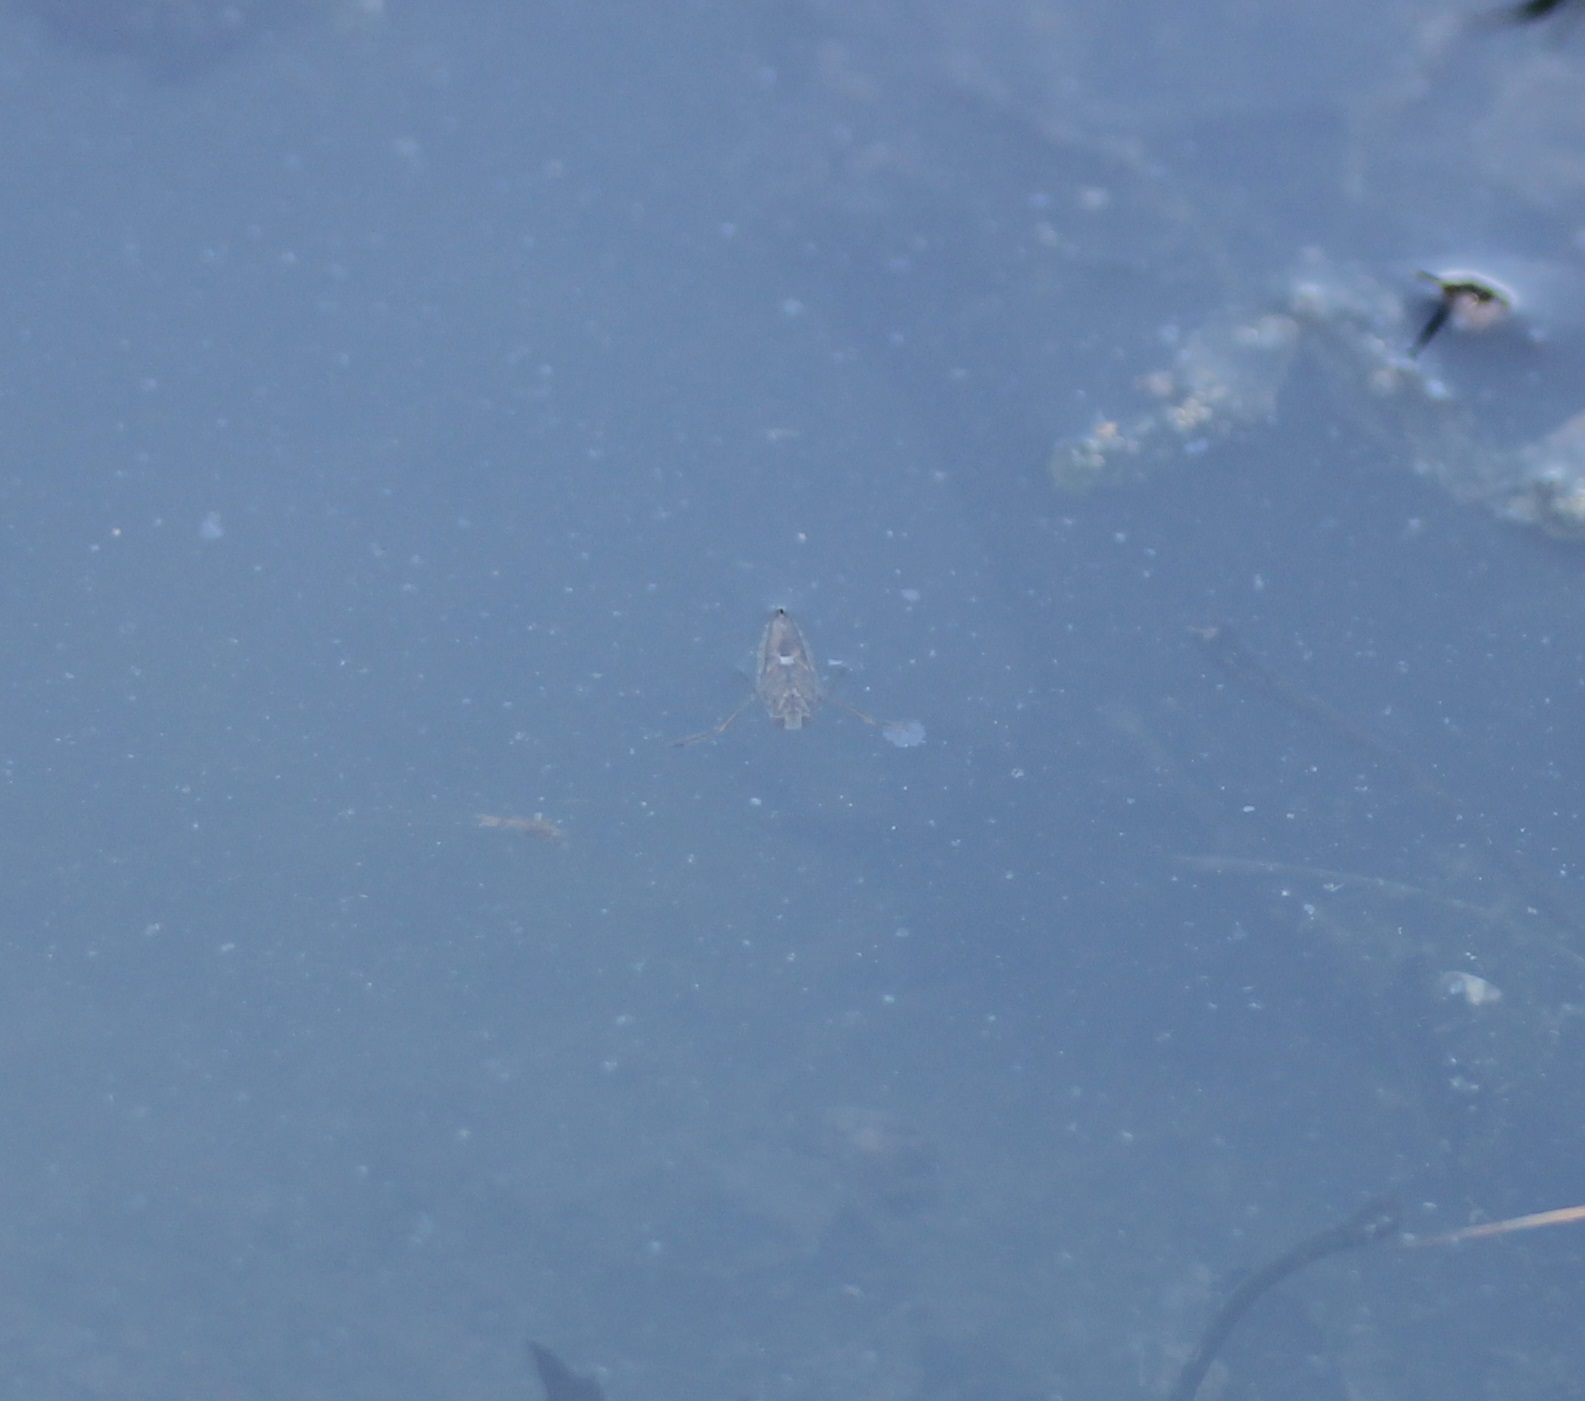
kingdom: Animalia
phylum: Arthropoda
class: Insecta
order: Hemiptera
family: Notonectidae
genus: Notonecta
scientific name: Notonecta
